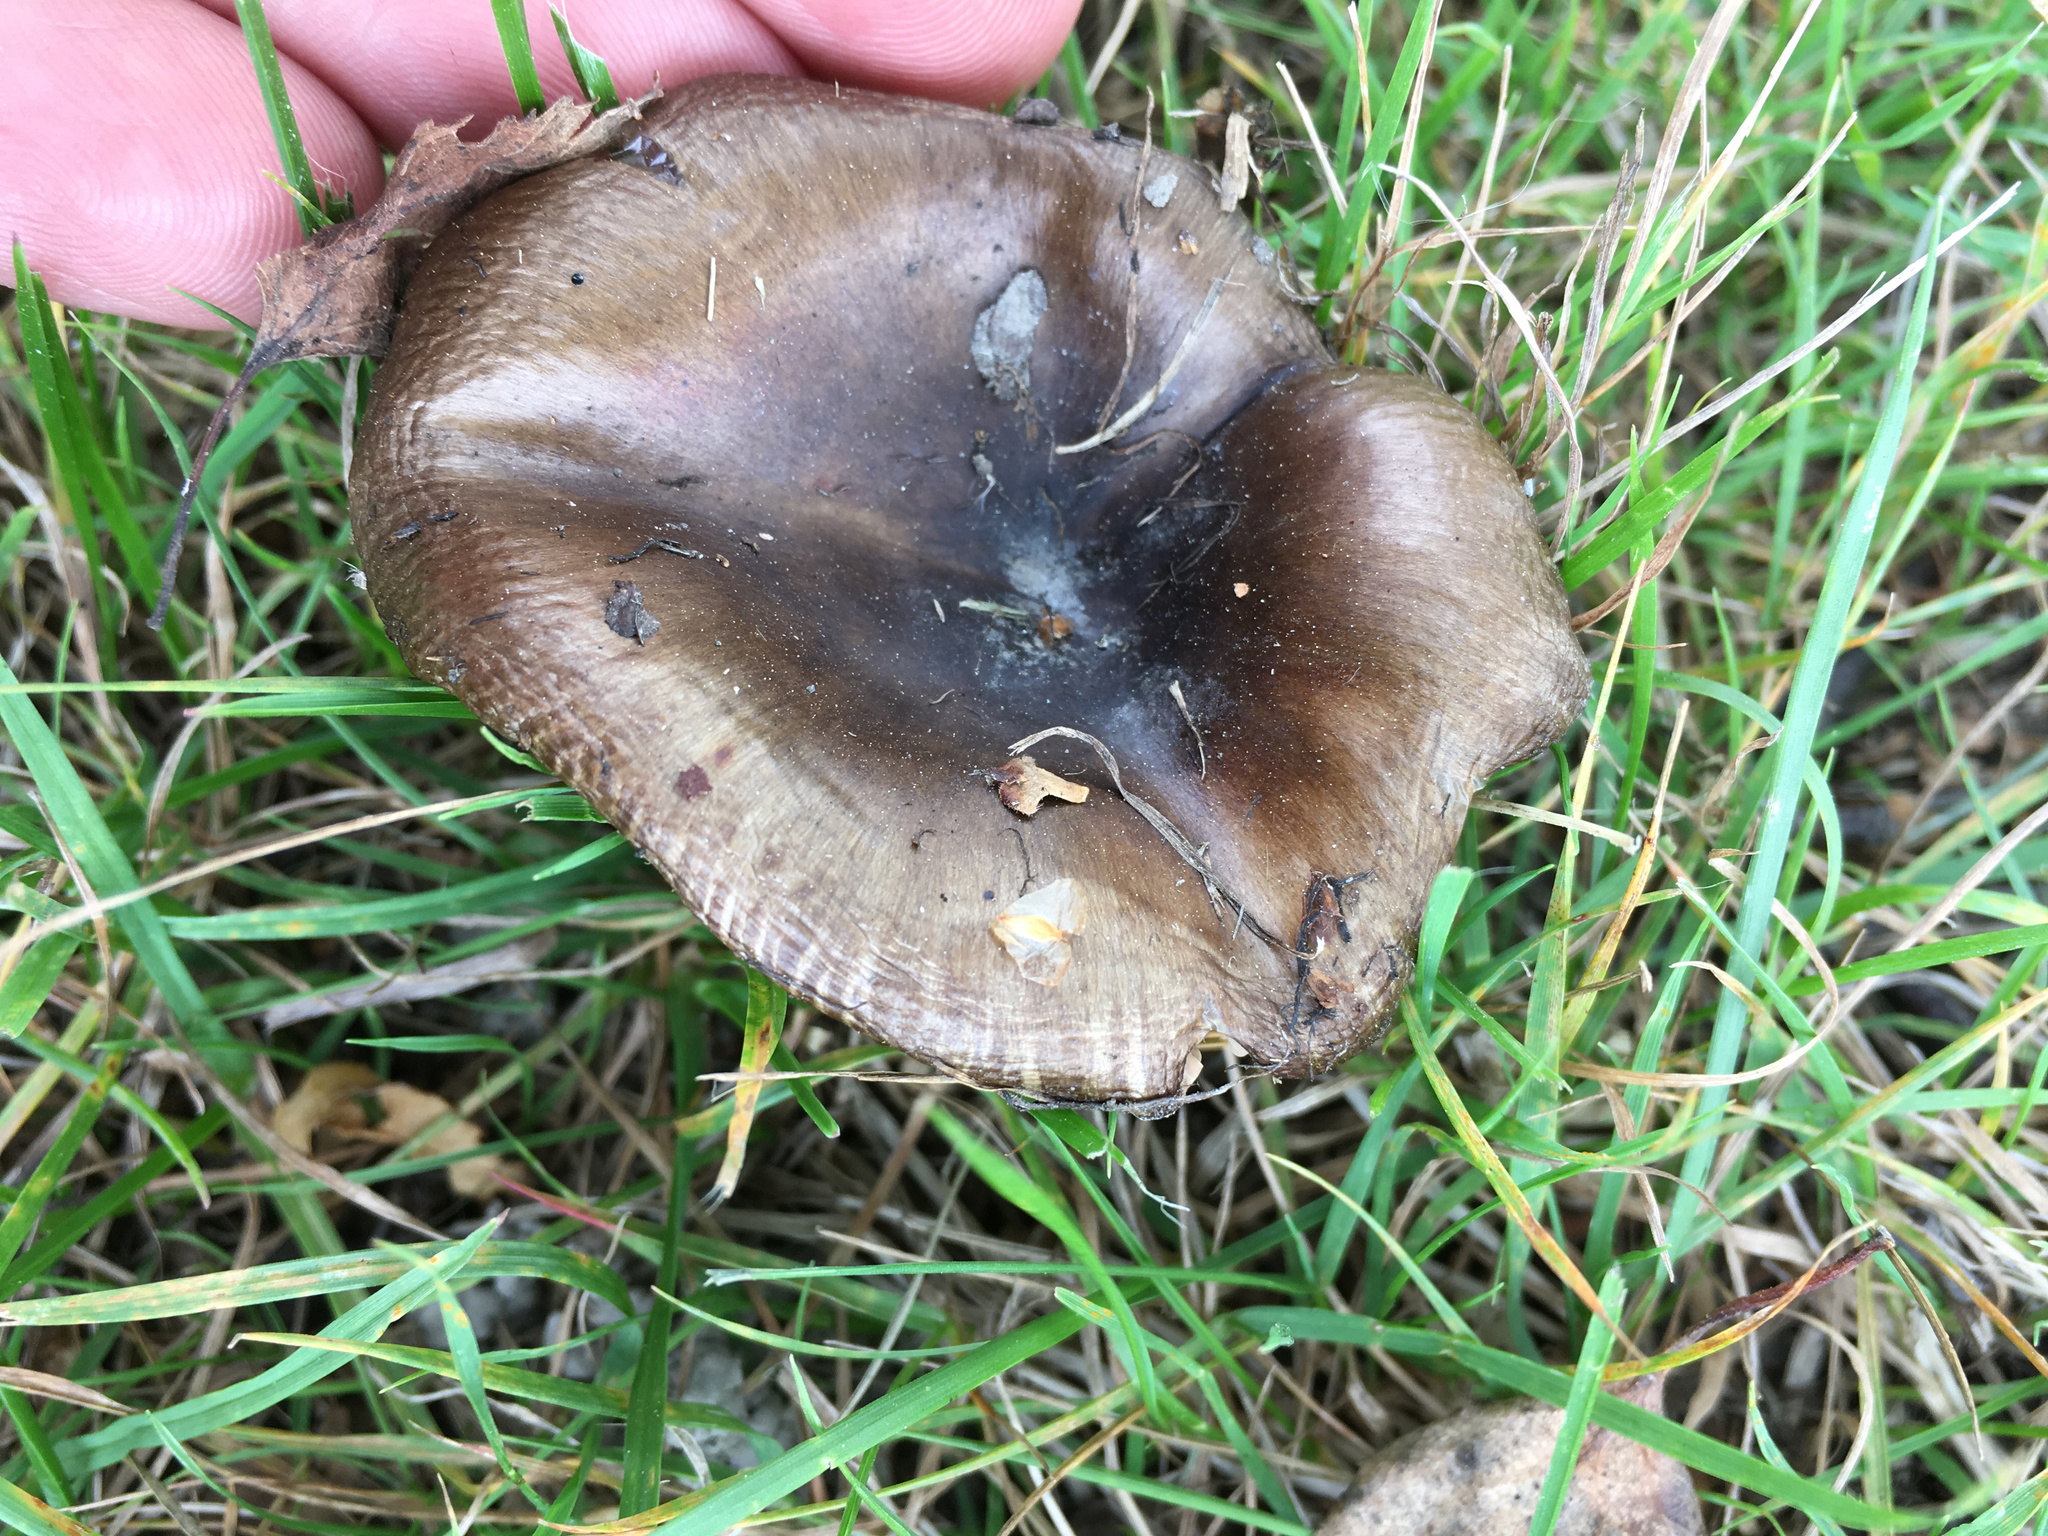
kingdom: Fungi
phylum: Basidiomycota
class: Agaricomycetes
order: Russulales
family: Russulaceae
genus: Russula
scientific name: Russula amoenolens
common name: Camembert brittlegill
